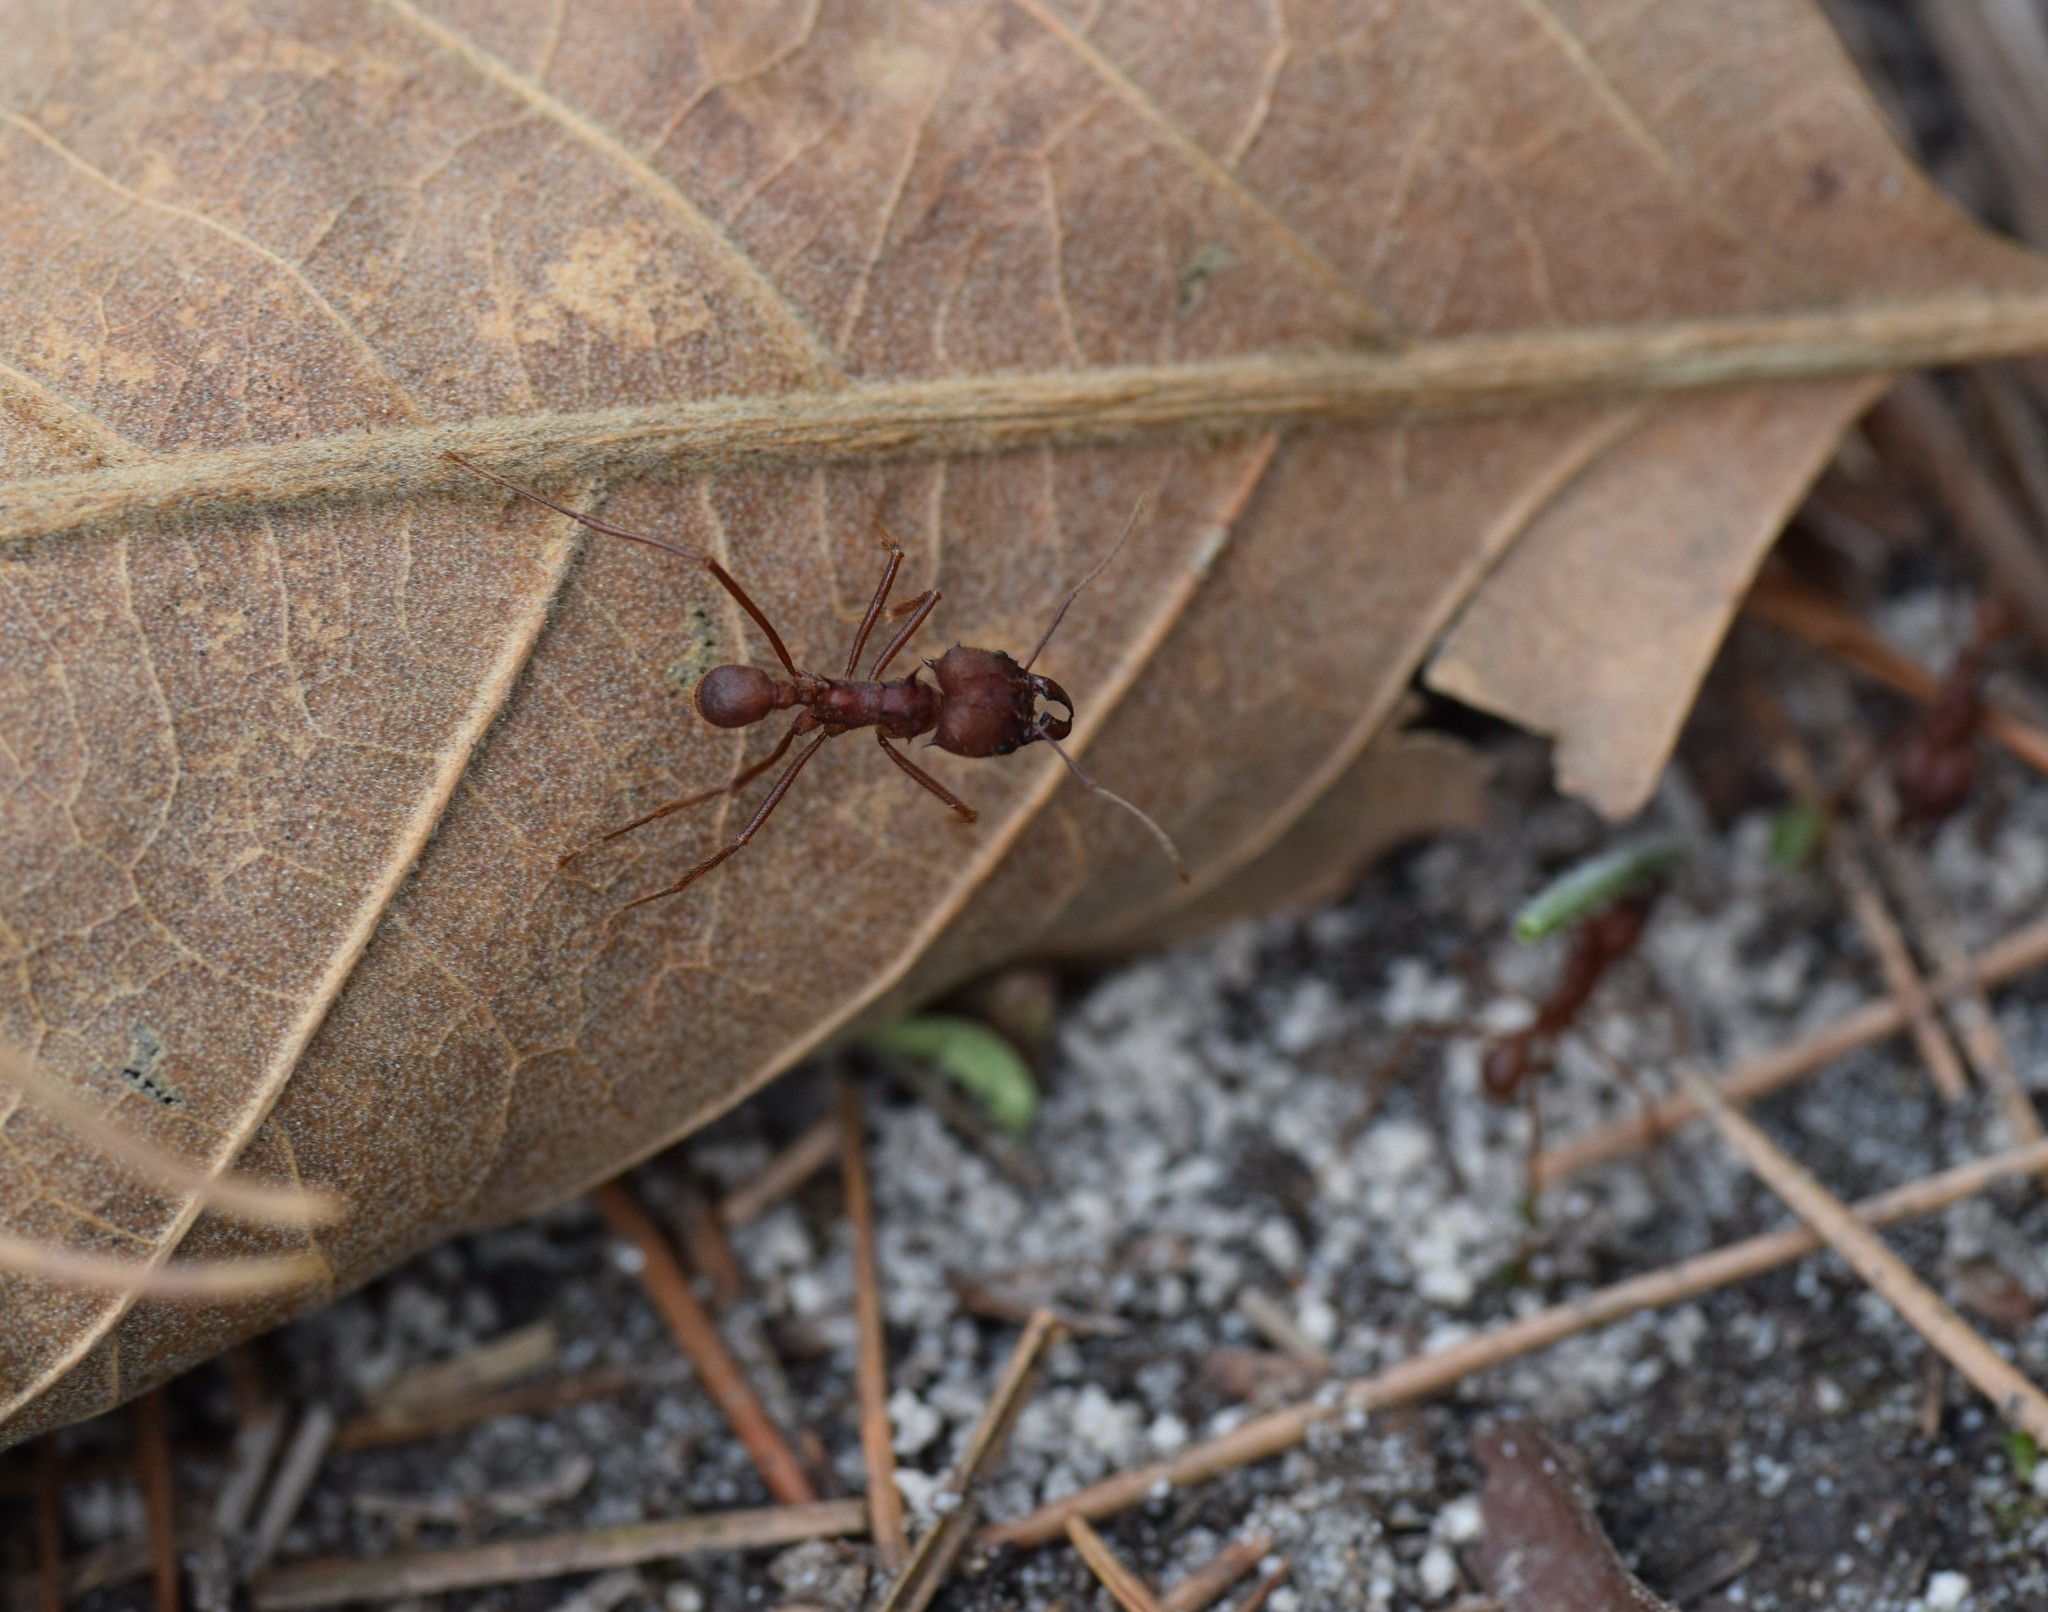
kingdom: Animalia
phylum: Arthropoda
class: Insecta
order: Hymenoptera
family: Formicidae
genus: Atta
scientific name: Atta texana
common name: Texas leafcutting ant
